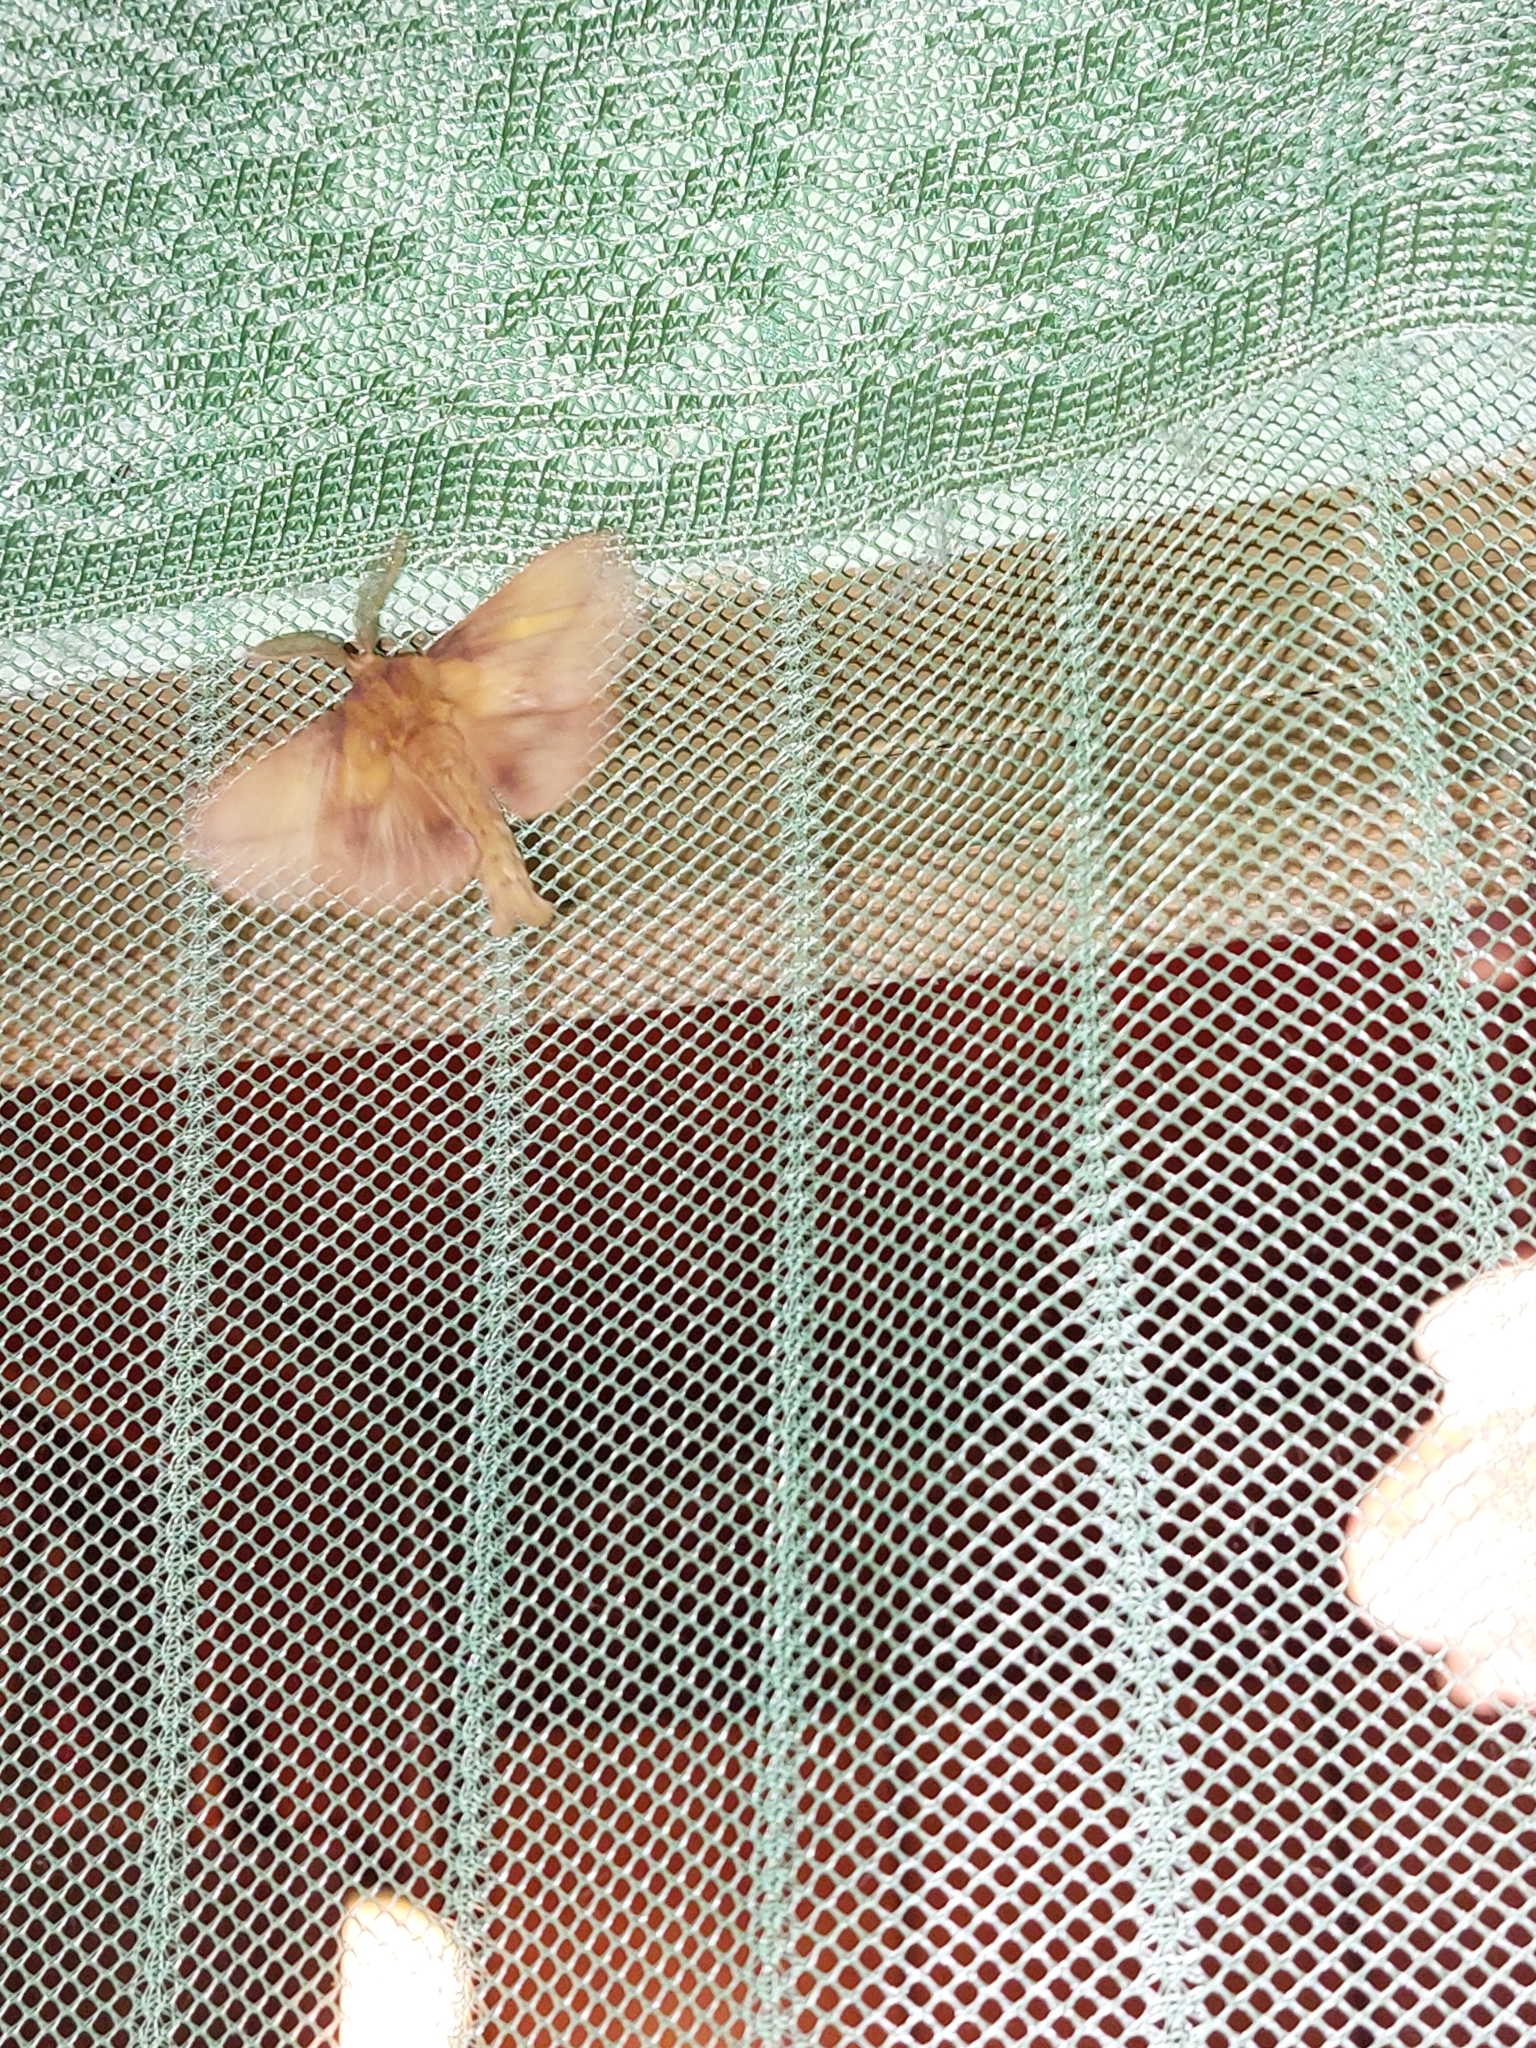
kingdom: Animalia
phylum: Arthropoda
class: Insecta
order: Lepidoptera
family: Lasiocampidae
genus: Euthrix
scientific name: Euthrix potatoria
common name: Drinker
